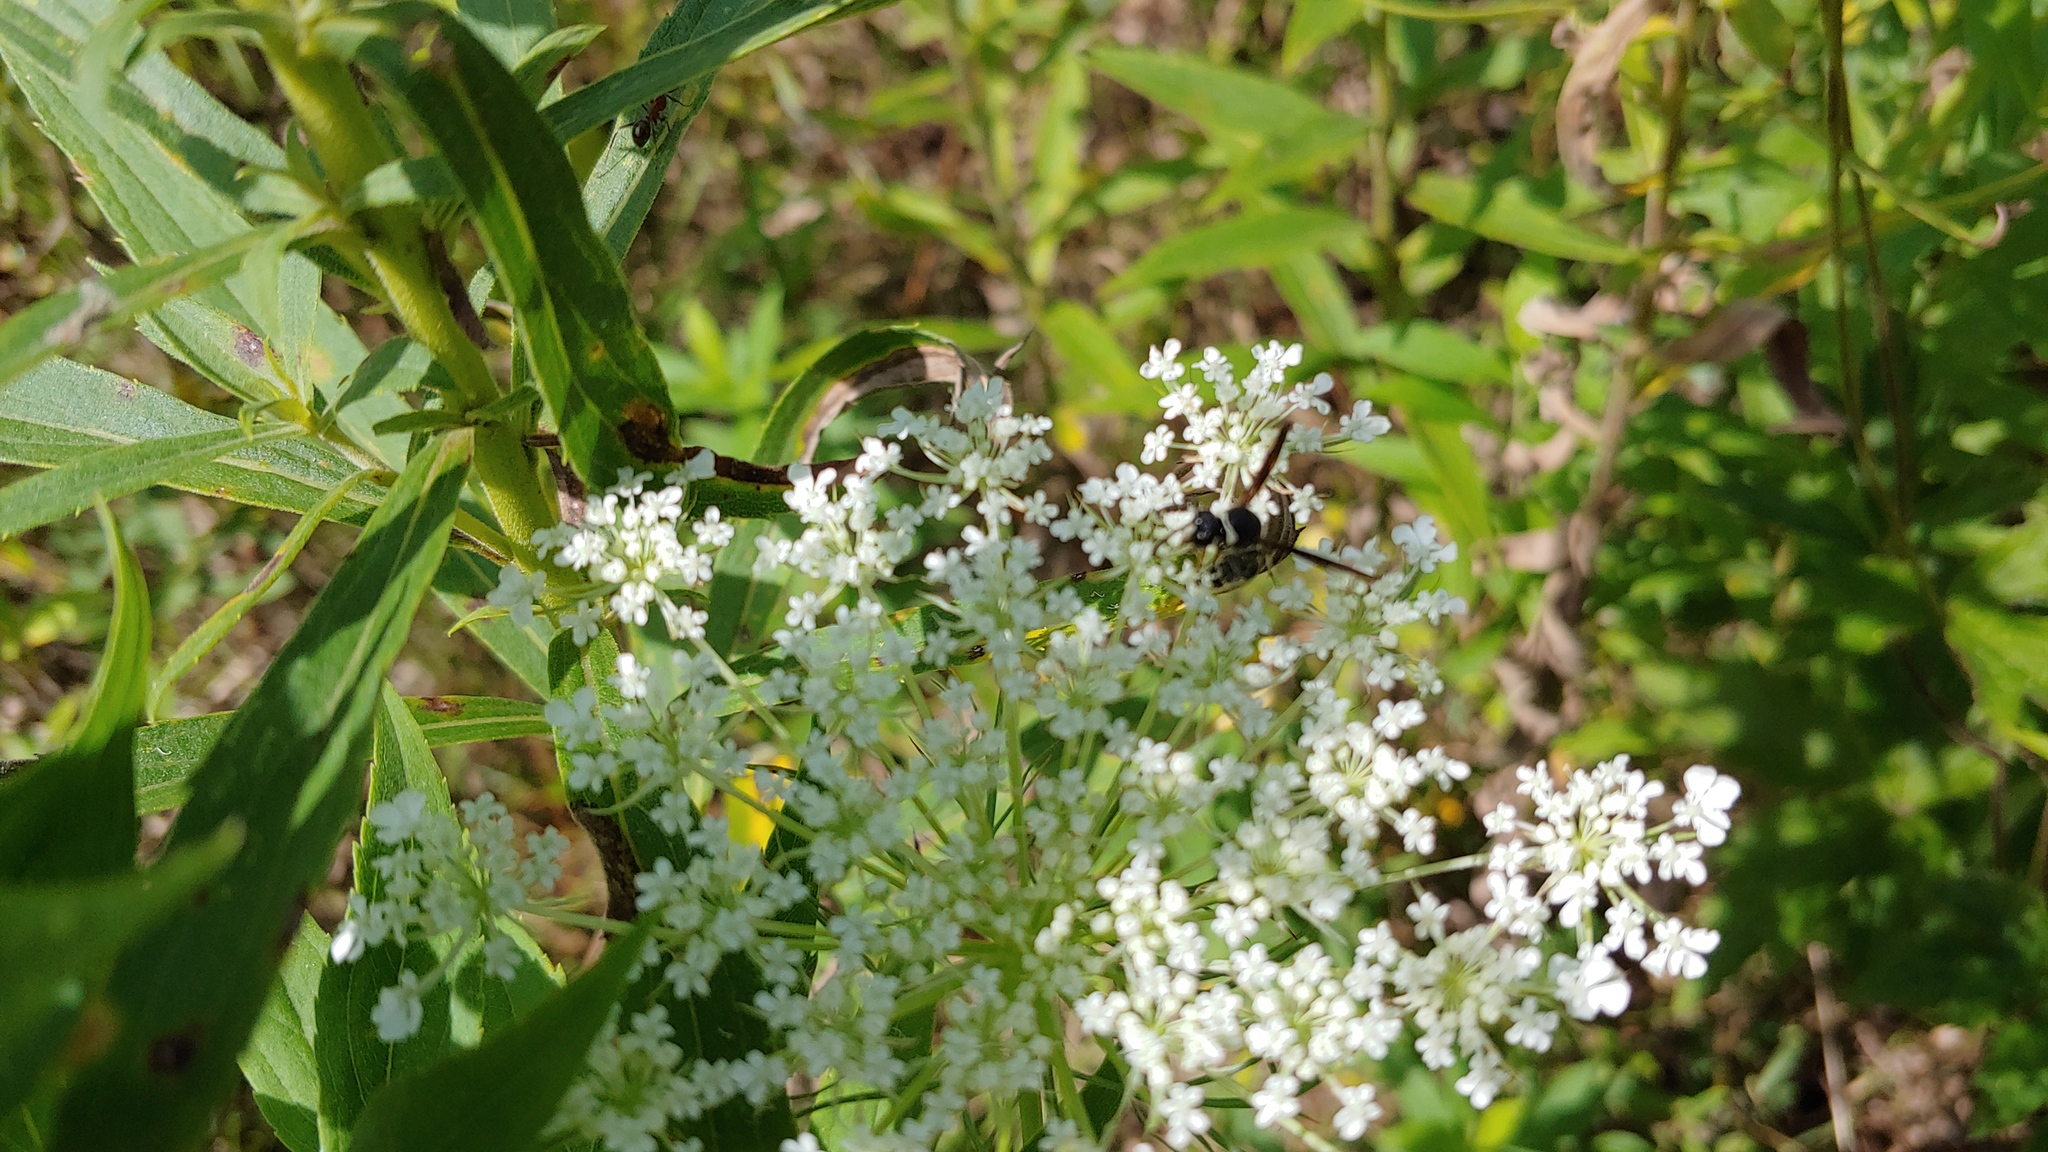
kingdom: Animalia
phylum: Arthropoda
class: Insecta
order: Hymenoptera
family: Vespidae
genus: Eumenes
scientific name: Eumenes fraternus
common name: Fraternal potter wasp
